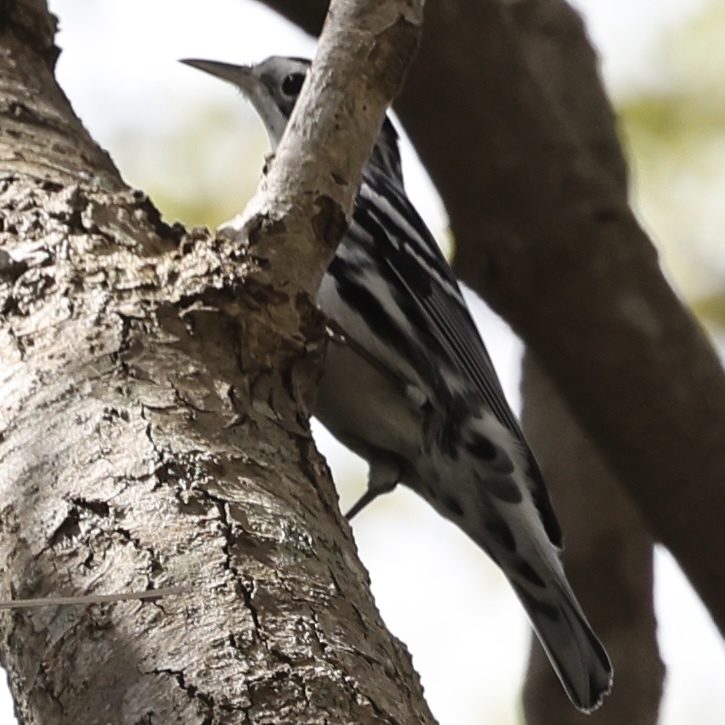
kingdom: Animalia
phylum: Chordata
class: Aves
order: Passeriformes
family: Parulidae
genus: Mniotilta
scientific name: Mniotilta varia
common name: Black-and-white warbler
